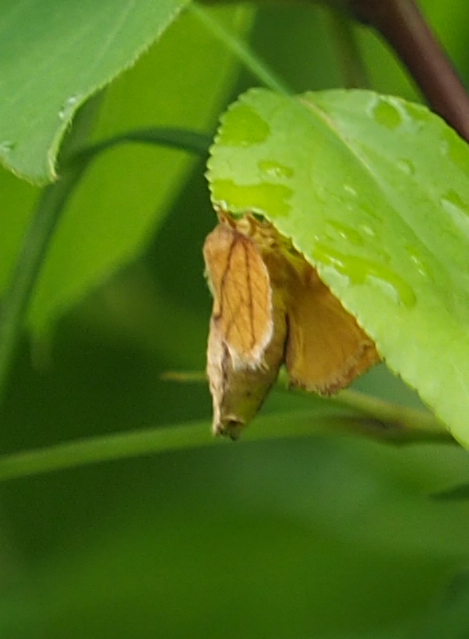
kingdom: Animalia
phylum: Arthropoda
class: Insecta
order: Lepidoptera
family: Limacodidae
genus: Apoda
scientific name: Apoda y-inversa
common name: Yellow-collared slug moth
